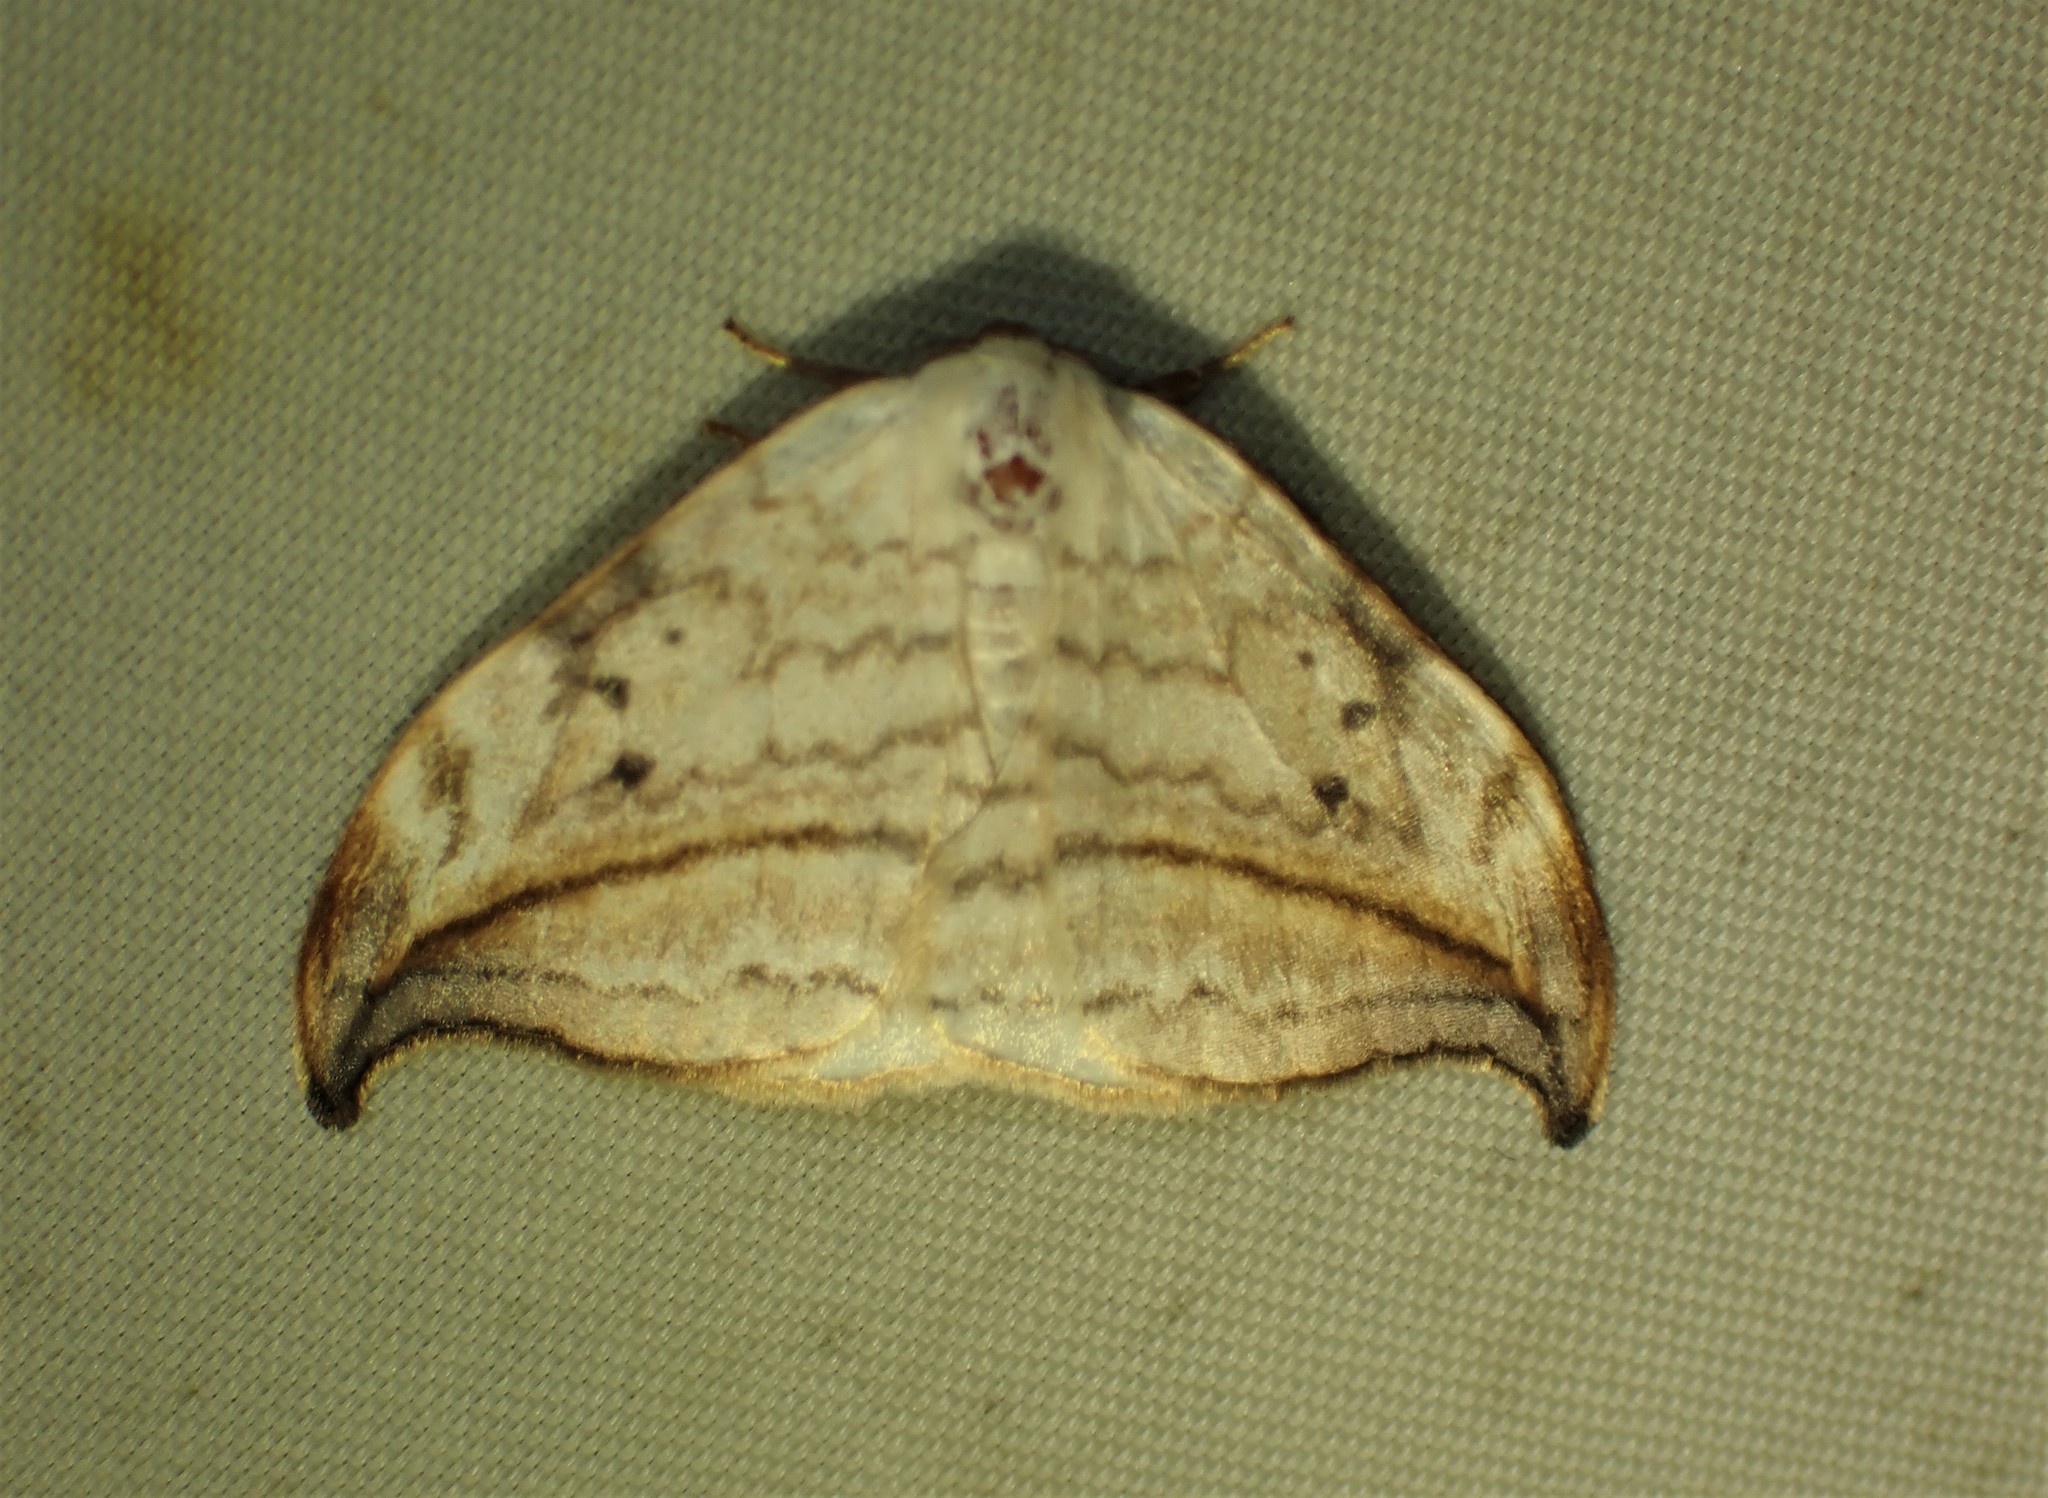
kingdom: Animalia
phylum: Arthropoda
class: Insecta
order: Lepidoptera
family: Drepanidae
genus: Drepana
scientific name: Drepana arcuata
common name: Arched hooktip moth
